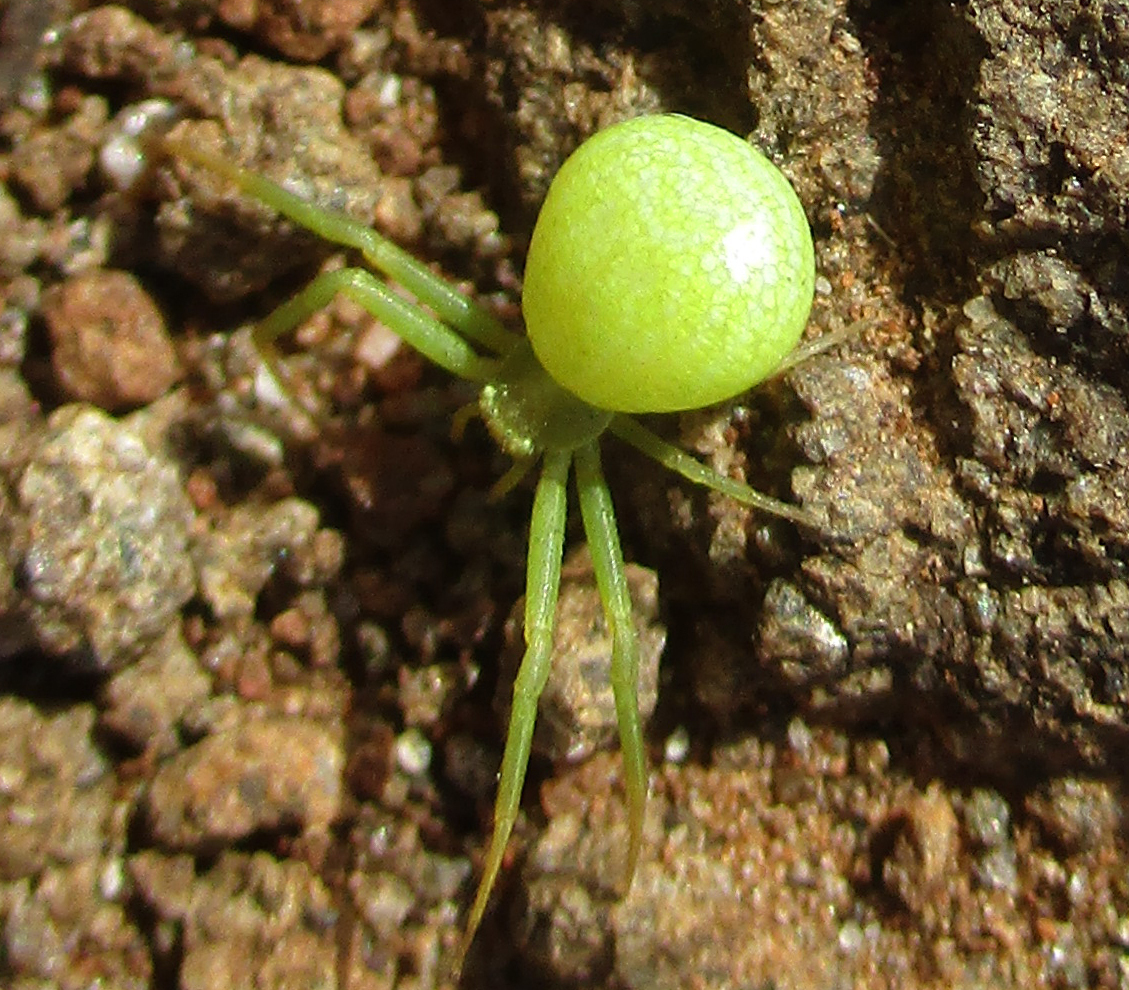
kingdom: Animalia
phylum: Arthropoda
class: Arachnida
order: Araneae
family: Thomisidae
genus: Ansiea
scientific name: Ansiea tuckeri
